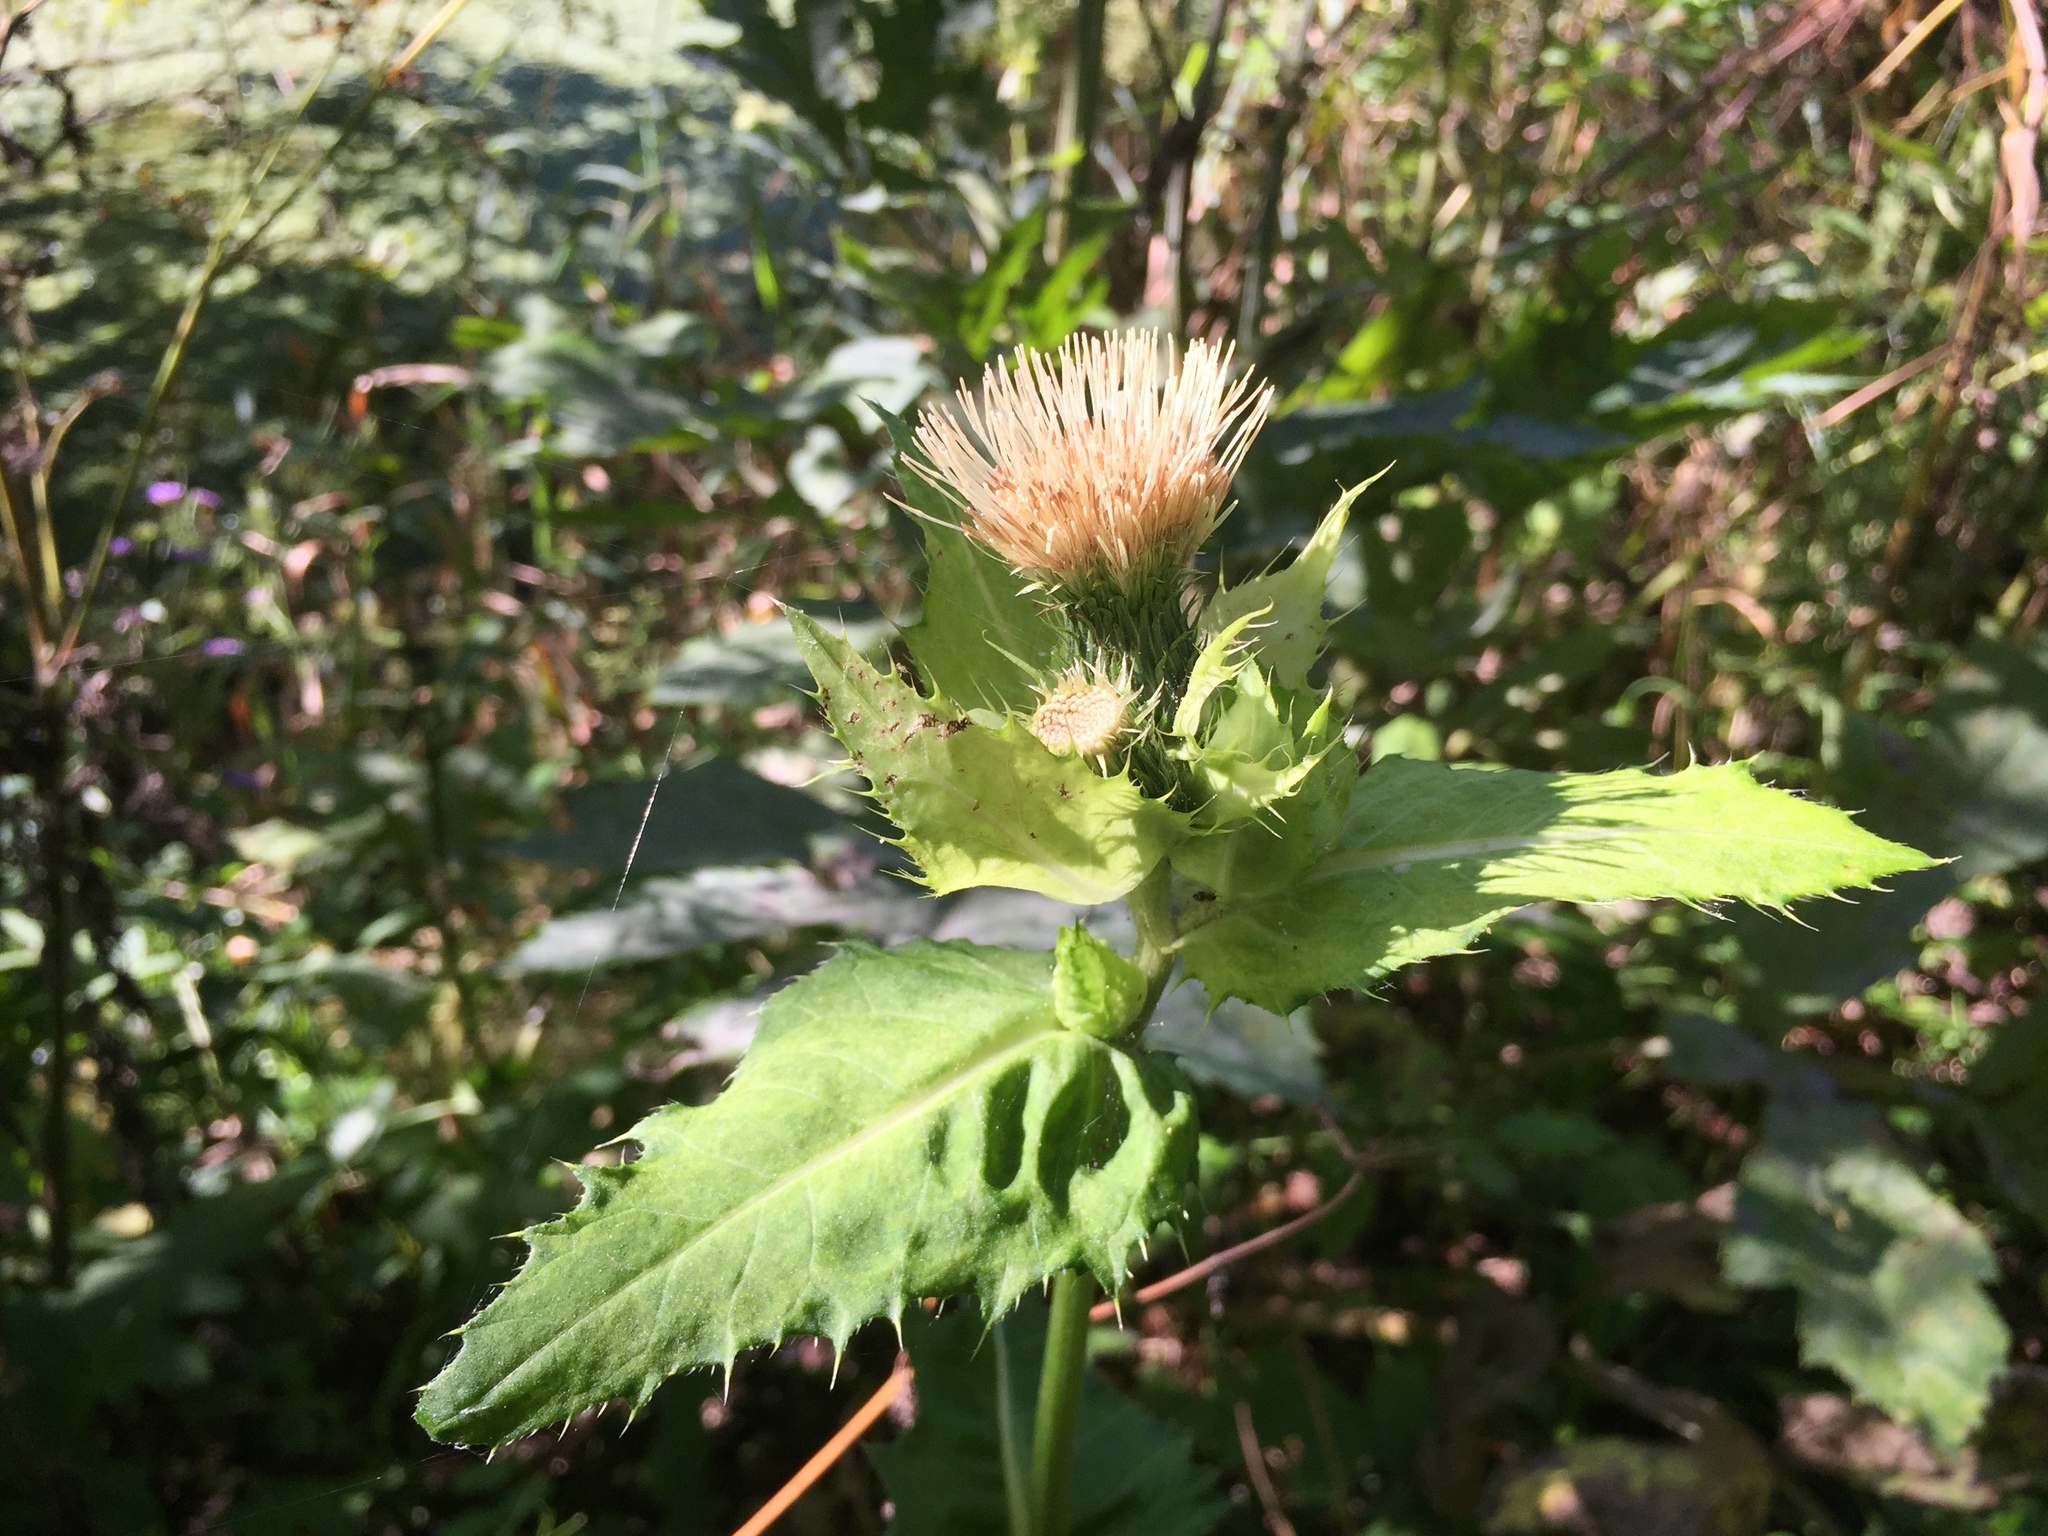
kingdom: Plantae
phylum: Tracheophyta
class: Magnoliopsida
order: Asterales
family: Asteraceae
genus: Cirsium
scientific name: Cirsium oleraceum
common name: Cabbage thistle
